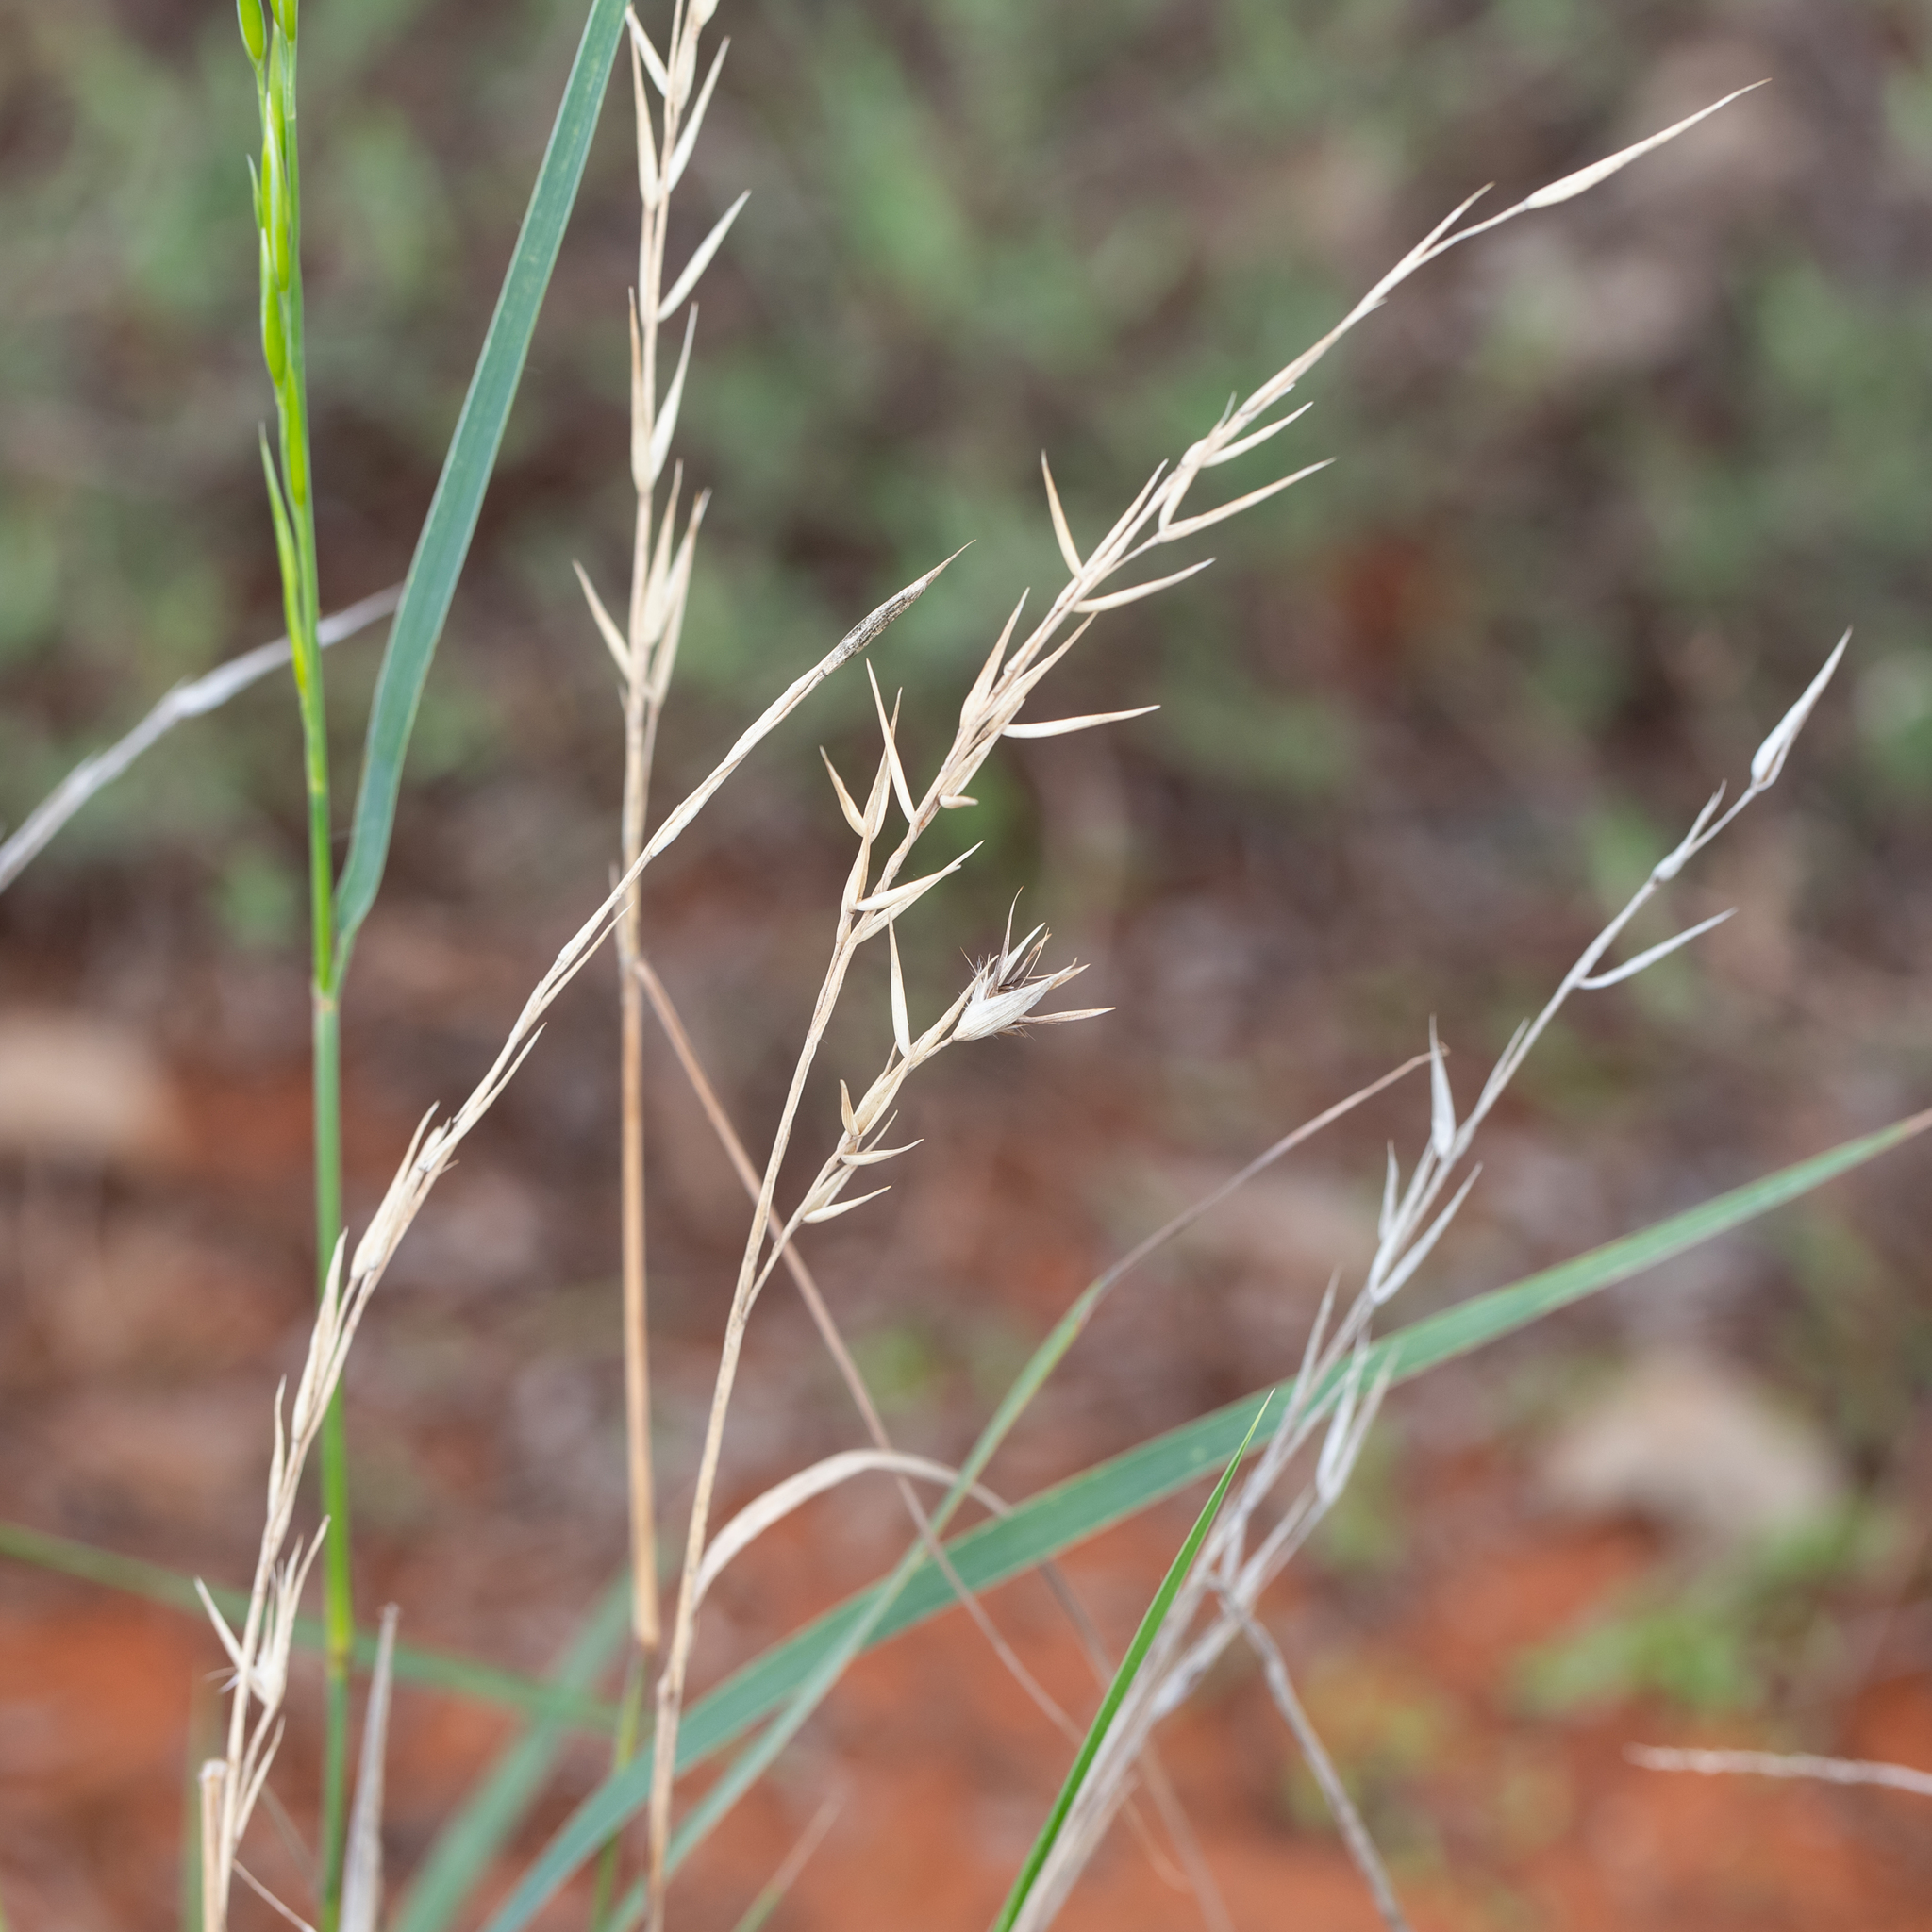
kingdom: Plantae
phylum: Tracheophyta
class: Liliopsida
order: Poales
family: Poaceae
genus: Monachather
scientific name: Monachather paradoxus
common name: Bandicoot grass
